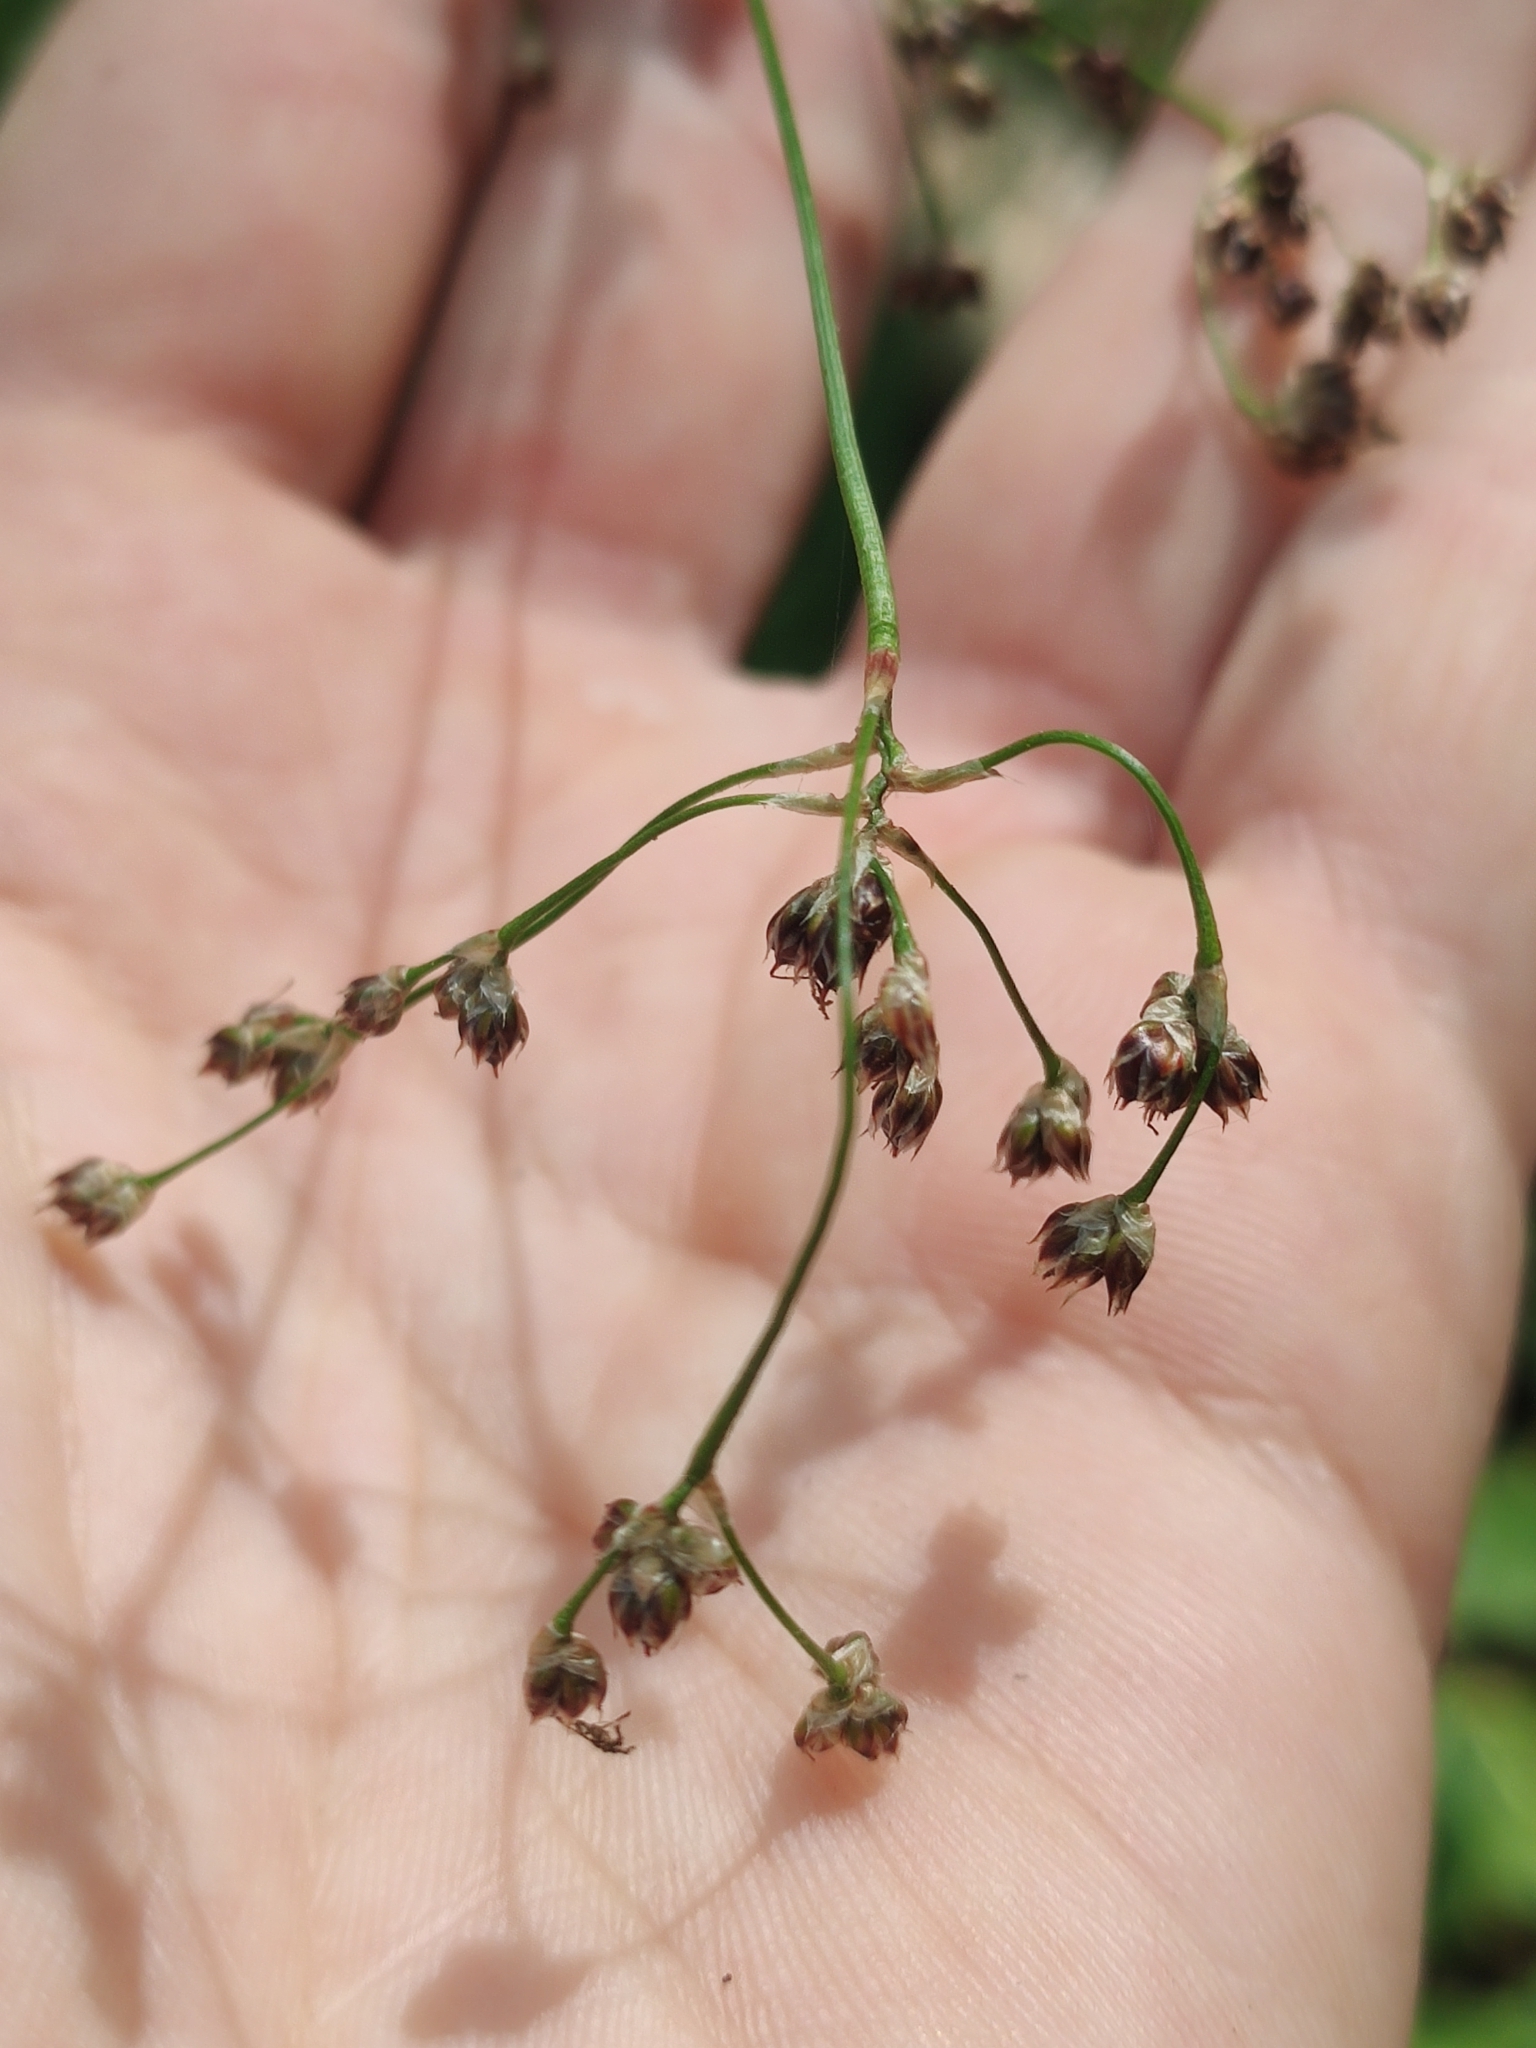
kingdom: Plantae
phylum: Tracheophyta
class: Liliopsida
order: Poales
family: Juncaceae
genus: Luzula
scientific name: Luzula sylvatica
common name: Great wood-rush
